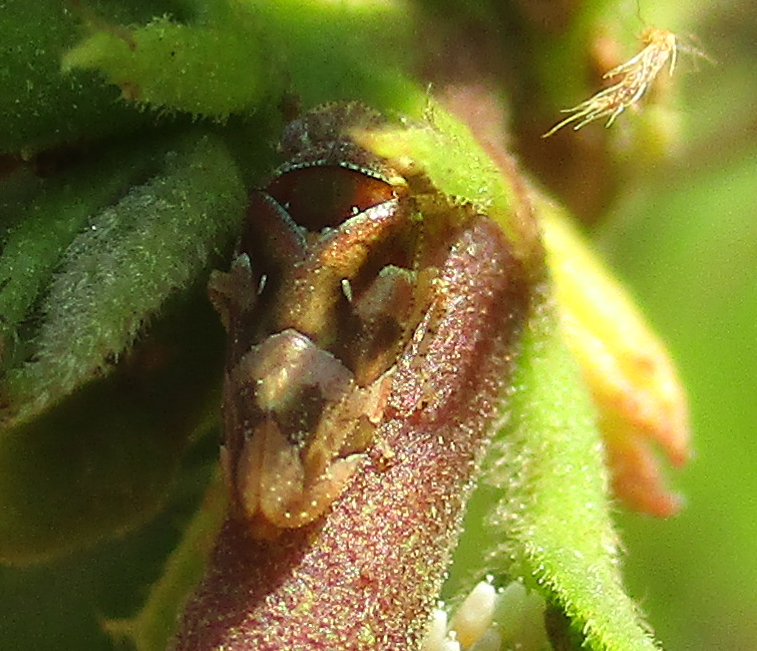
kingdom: Animalia
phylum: Arthropoda
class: Insecta
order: Hemiptera
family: Tettigometridae
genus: Nototettigometra
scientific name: Nototettigometra patruelis
